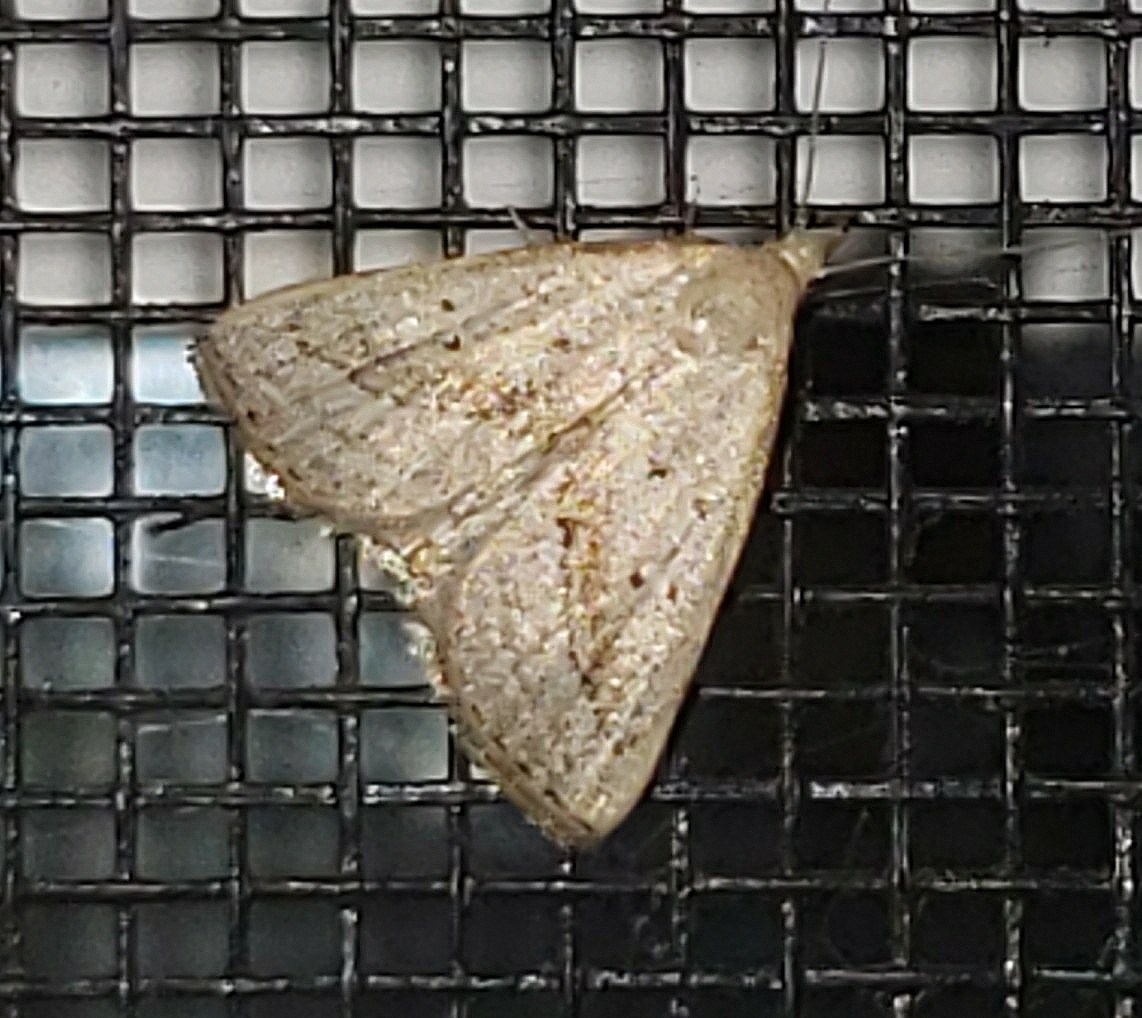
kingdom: Animalia
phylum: Arthropoda
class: Insecta
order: Lepidoptera
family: Erebidae
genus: Macrochilo
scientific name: Macrochilo hypocritalis
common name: Twin-dotted owlet
